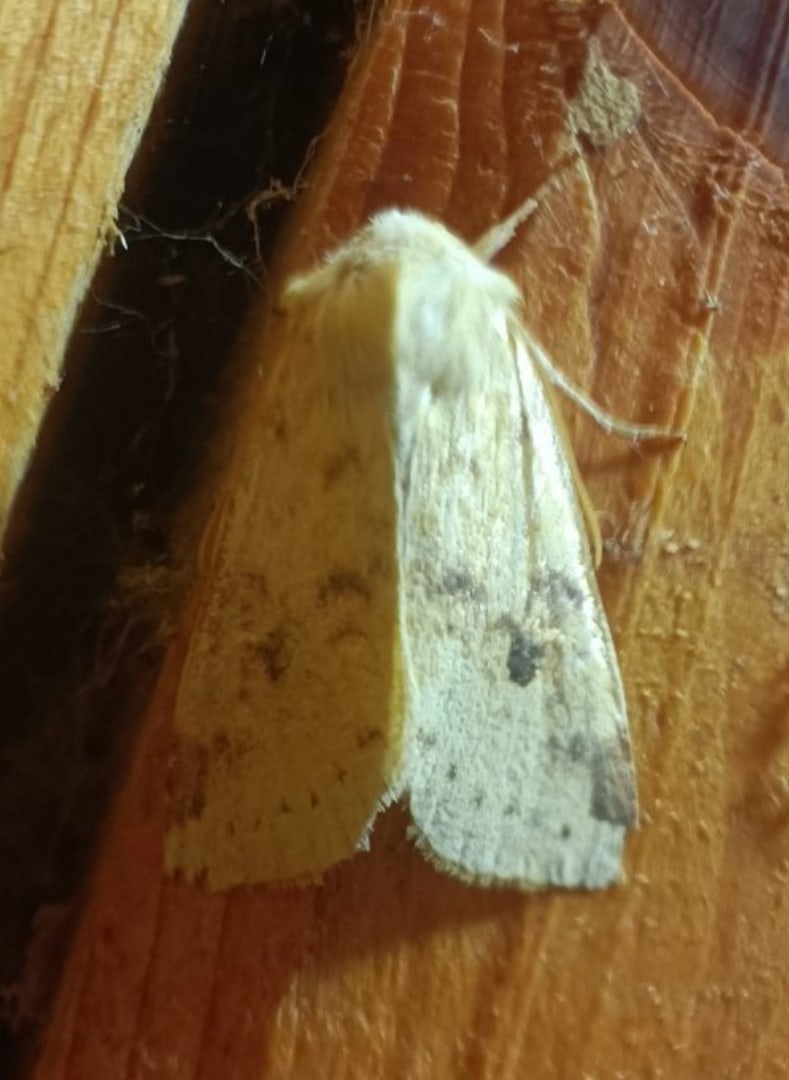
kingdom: Animalia
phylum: Arthropoda
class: Insecta
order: Lepidoptera
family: Noctuidae
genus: Xanthia
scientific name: Xanthia icteritia
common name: The sallow
